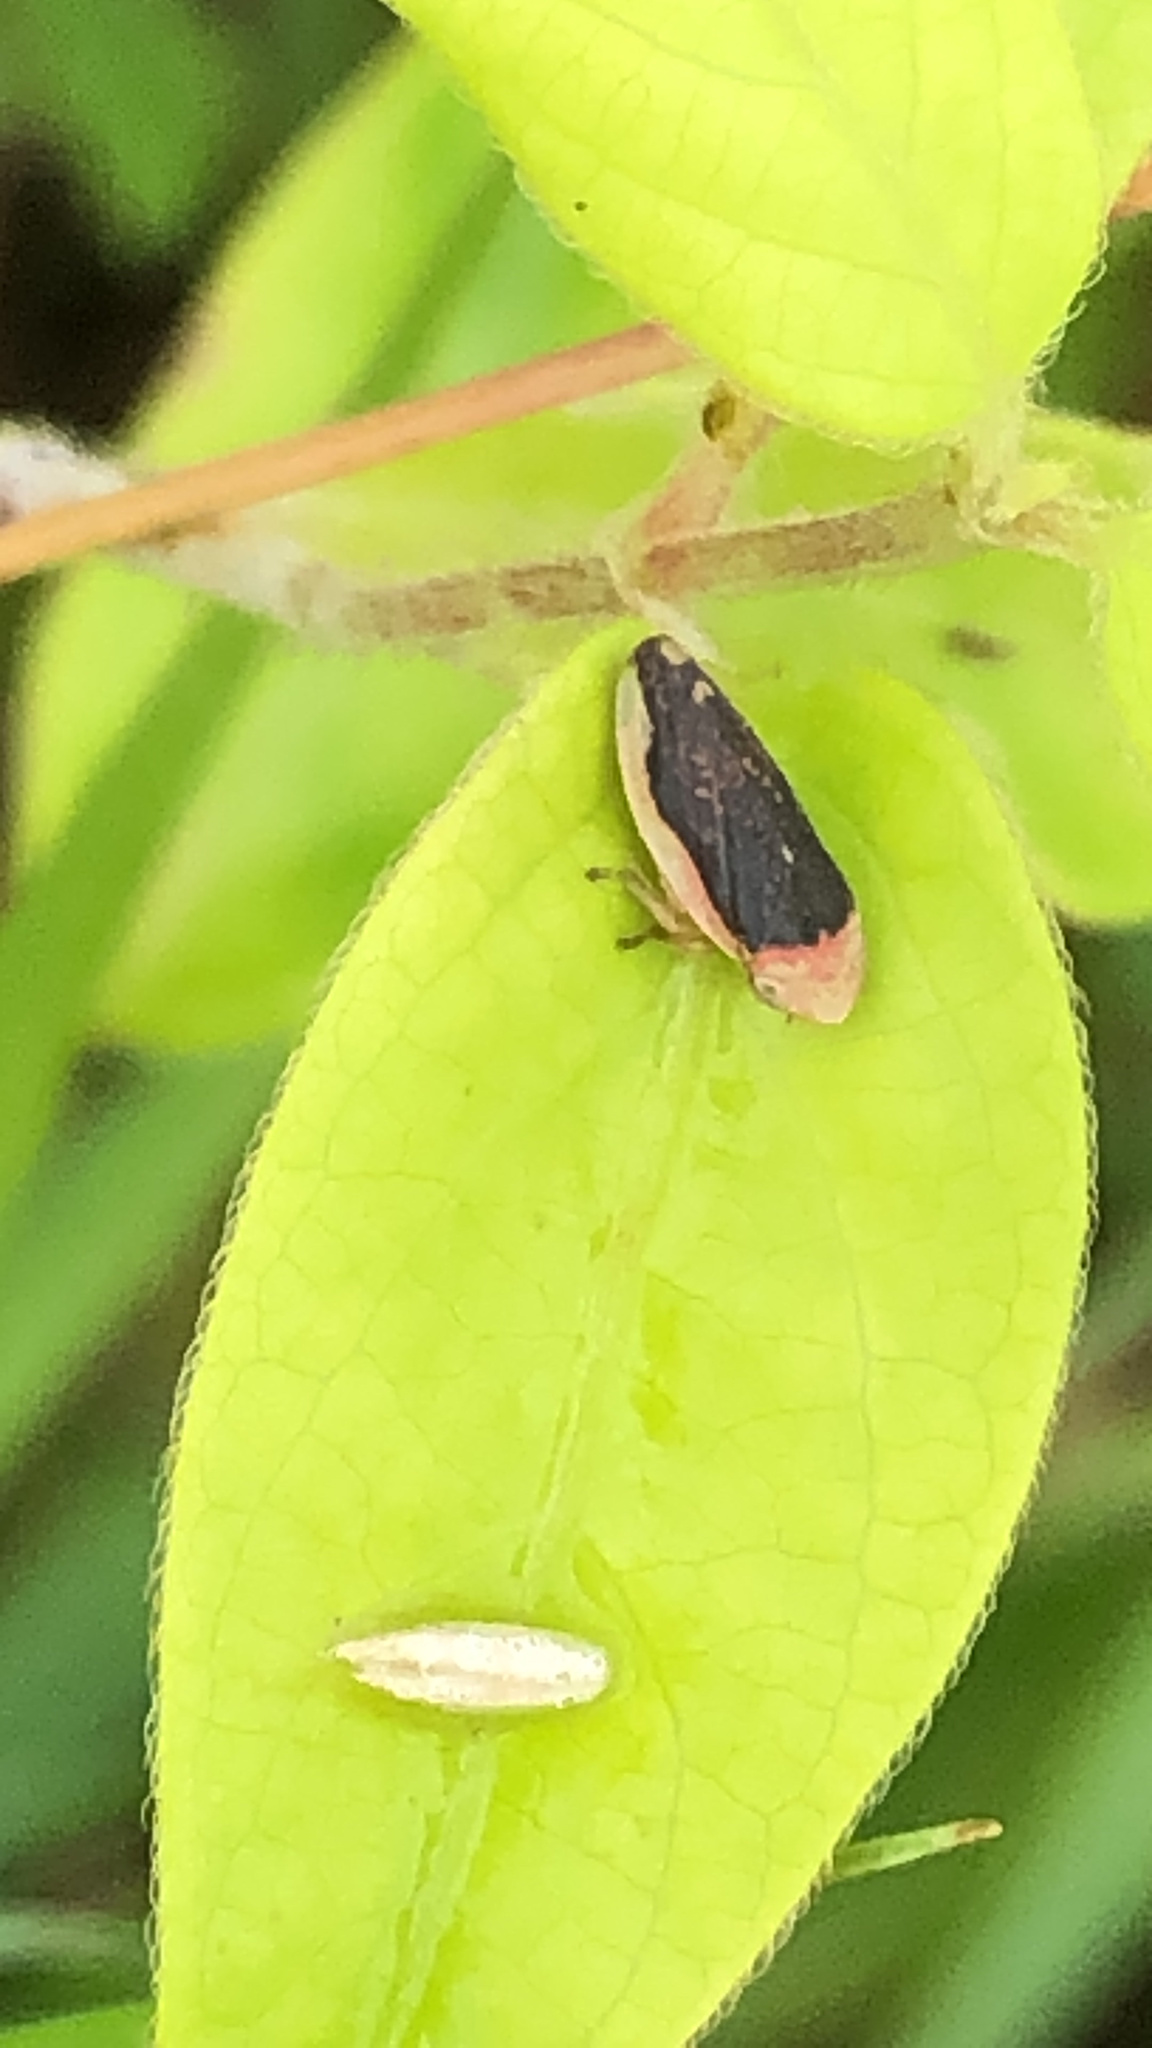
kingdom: Animalia
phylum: Arthropoda
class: Insecta
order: Hemiptera
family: Aphrophoridae
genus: Philaenus
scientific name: Philaenus spumarius
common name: Meadow spittlebug
